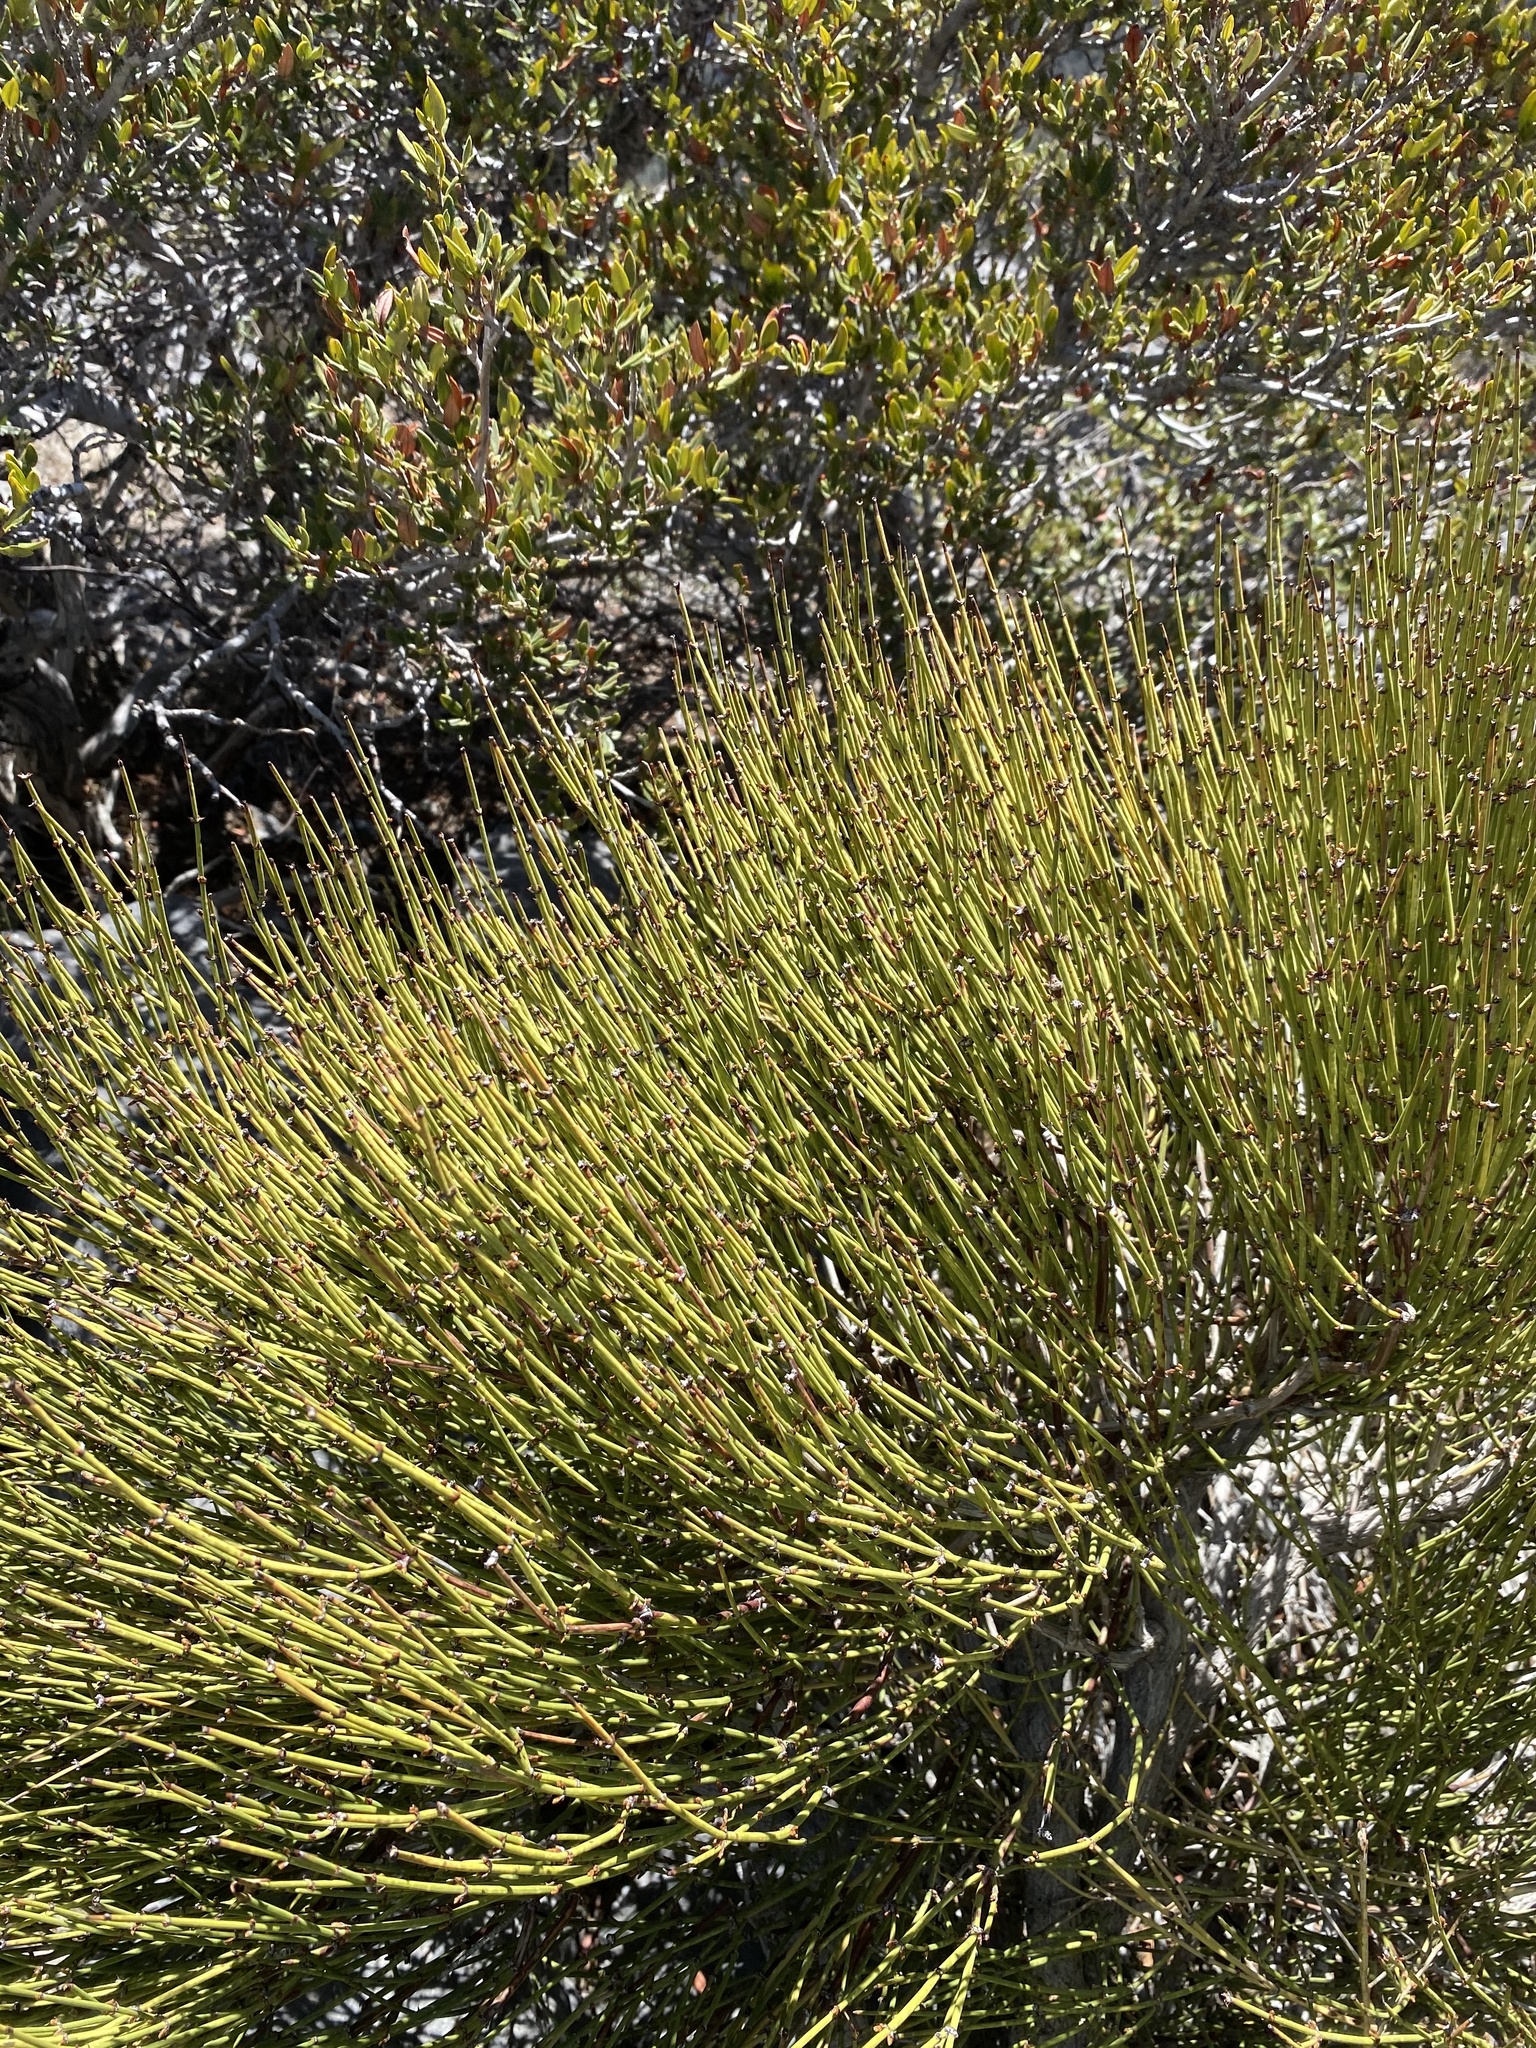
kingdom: Plantae
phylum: Tracheophyta
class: Gnetopsida
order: Ephedrales
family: Ephedraceae
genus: Ephedra
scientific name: Ephedra viridis
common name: Green ephedra
